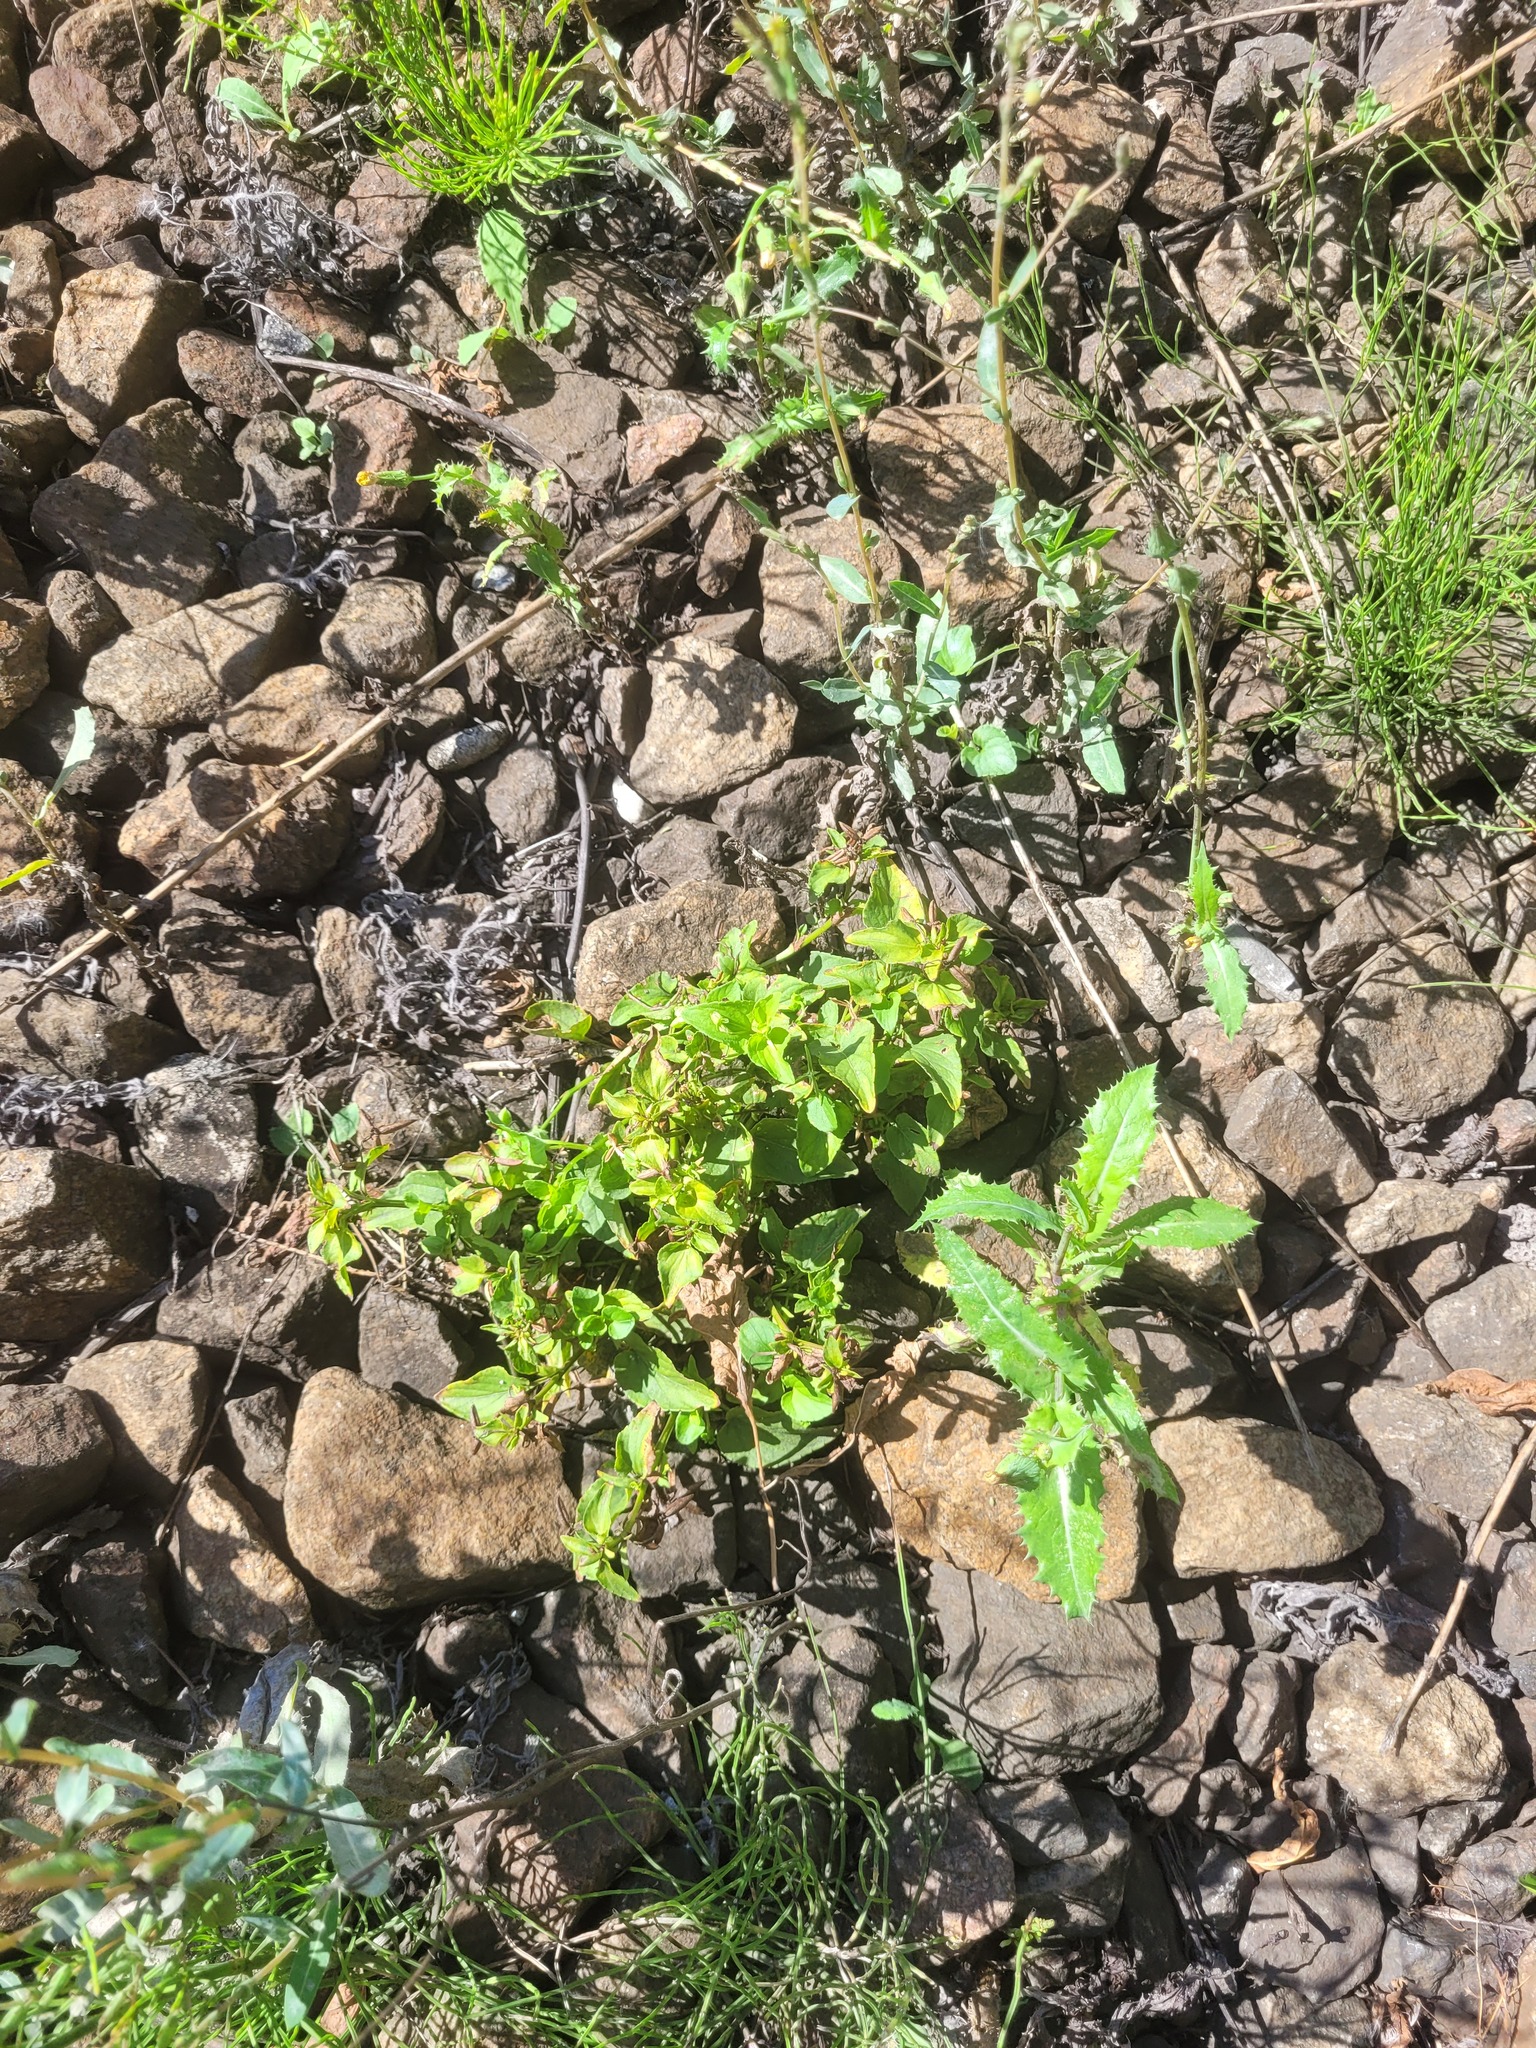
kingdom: Plantae
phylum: Tracheophyta
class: Magnoliopsida
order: Malpighiales
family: Violaceae
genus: Viola
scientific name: Viola canina
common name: Heath dog-violet
